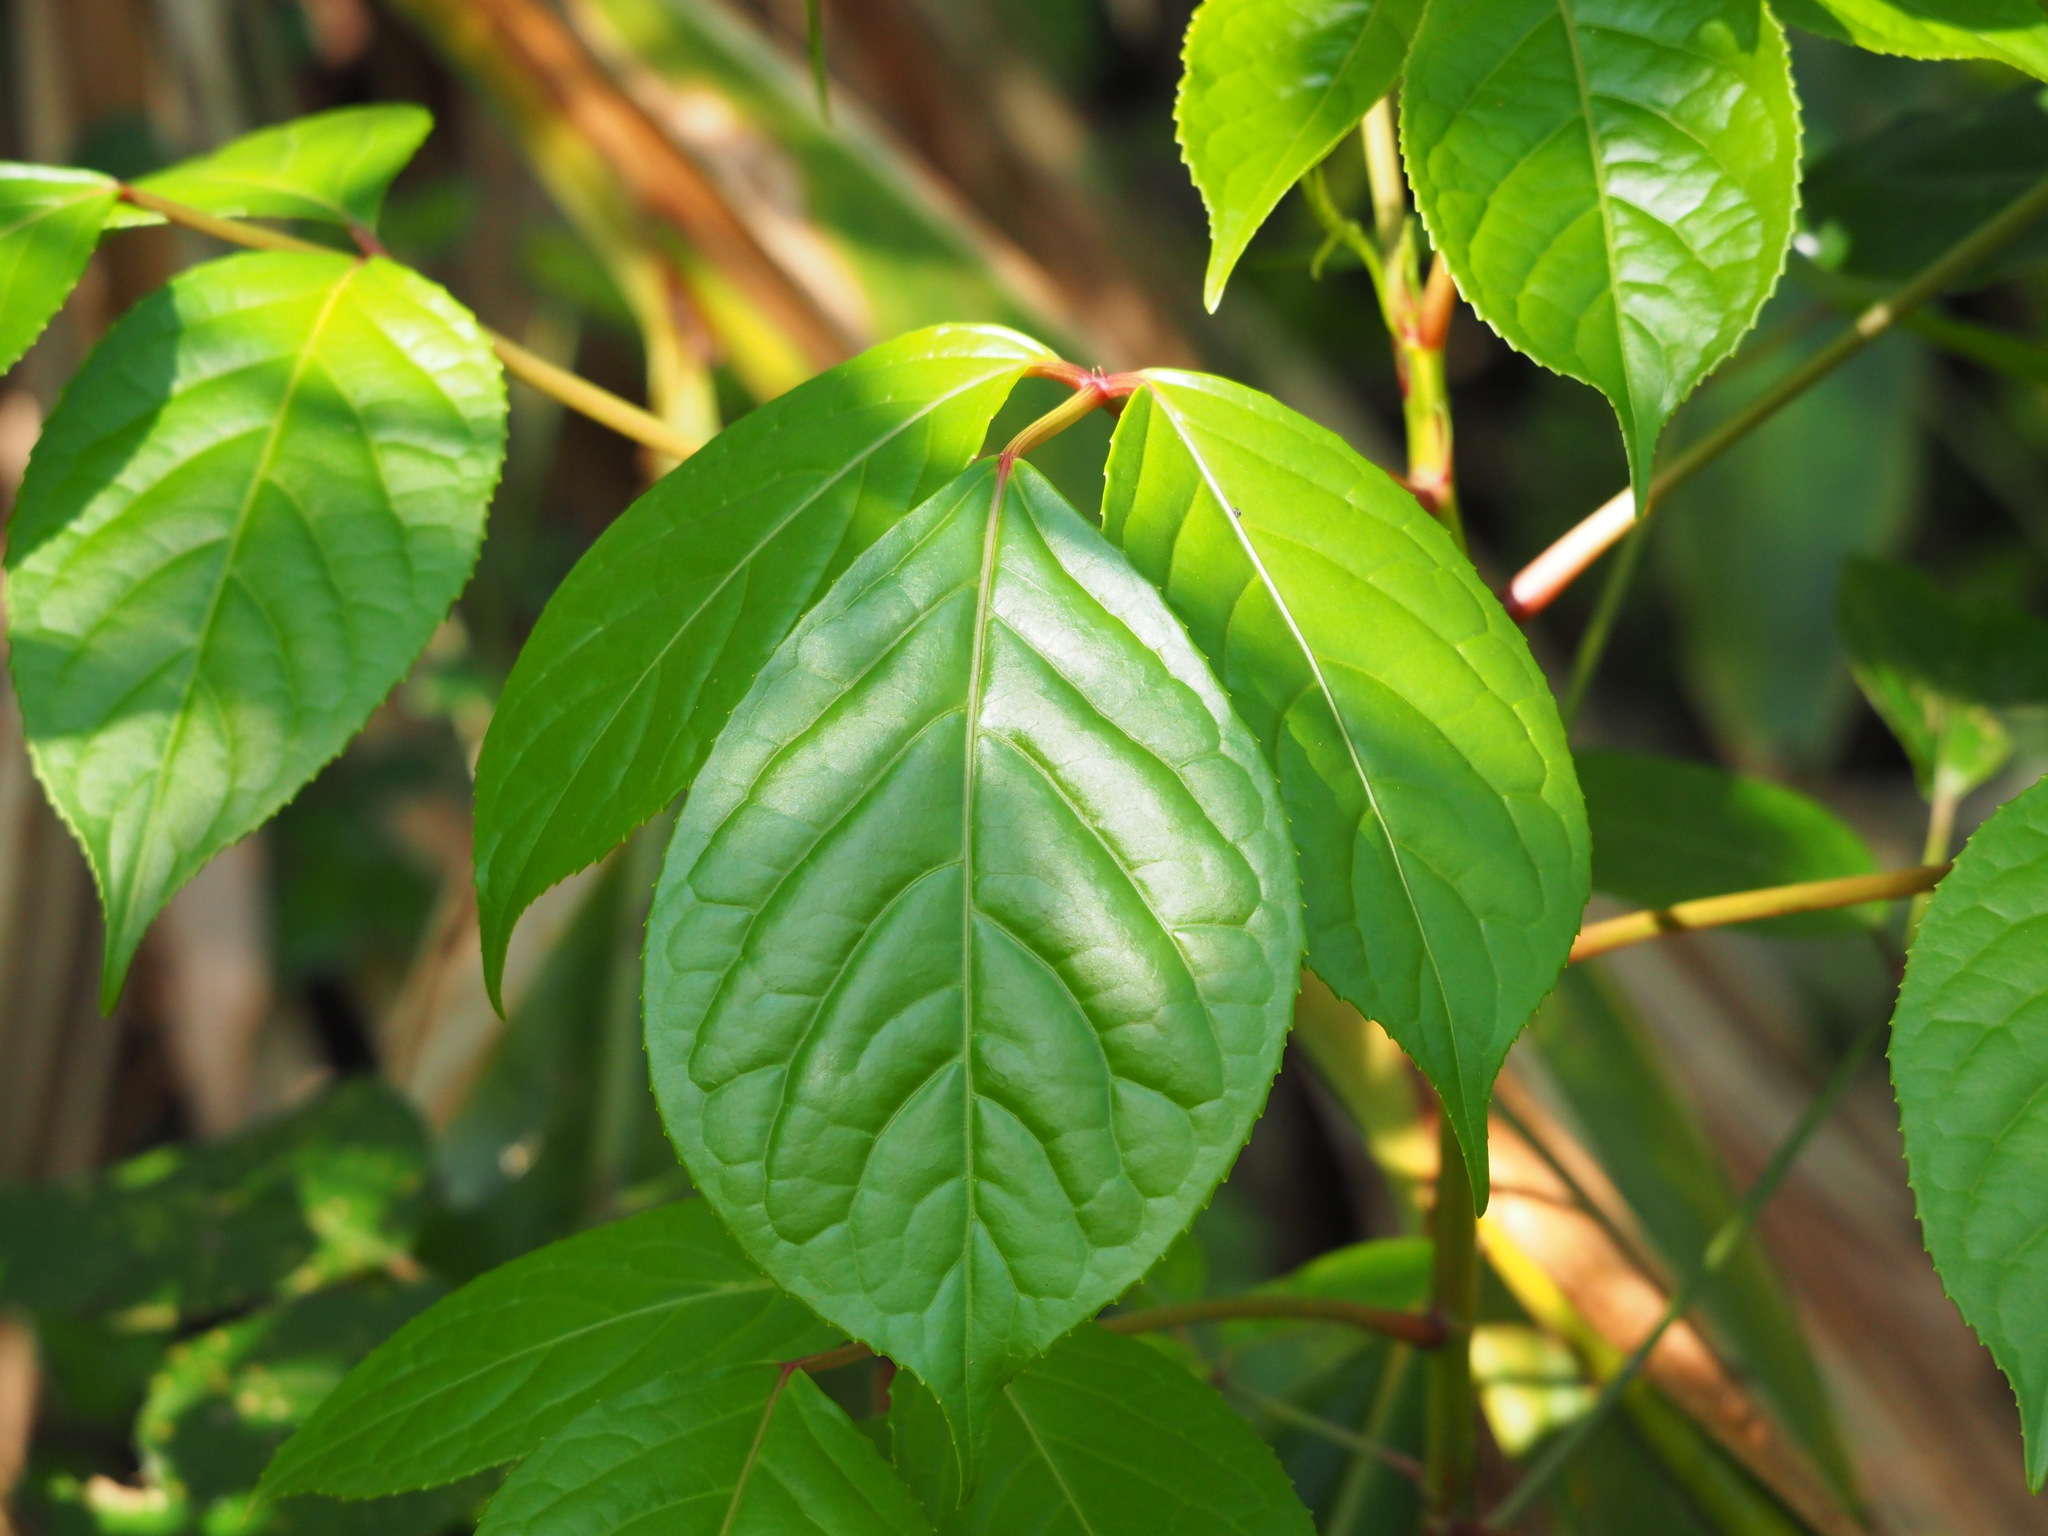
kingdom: Plantae
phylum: Tracheophyta
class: Magnoliopsida
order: Malpighiales
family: Phyllanthaceae
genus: Bischofia
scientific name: Bischofia javanica
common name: Javanese bishopwood
